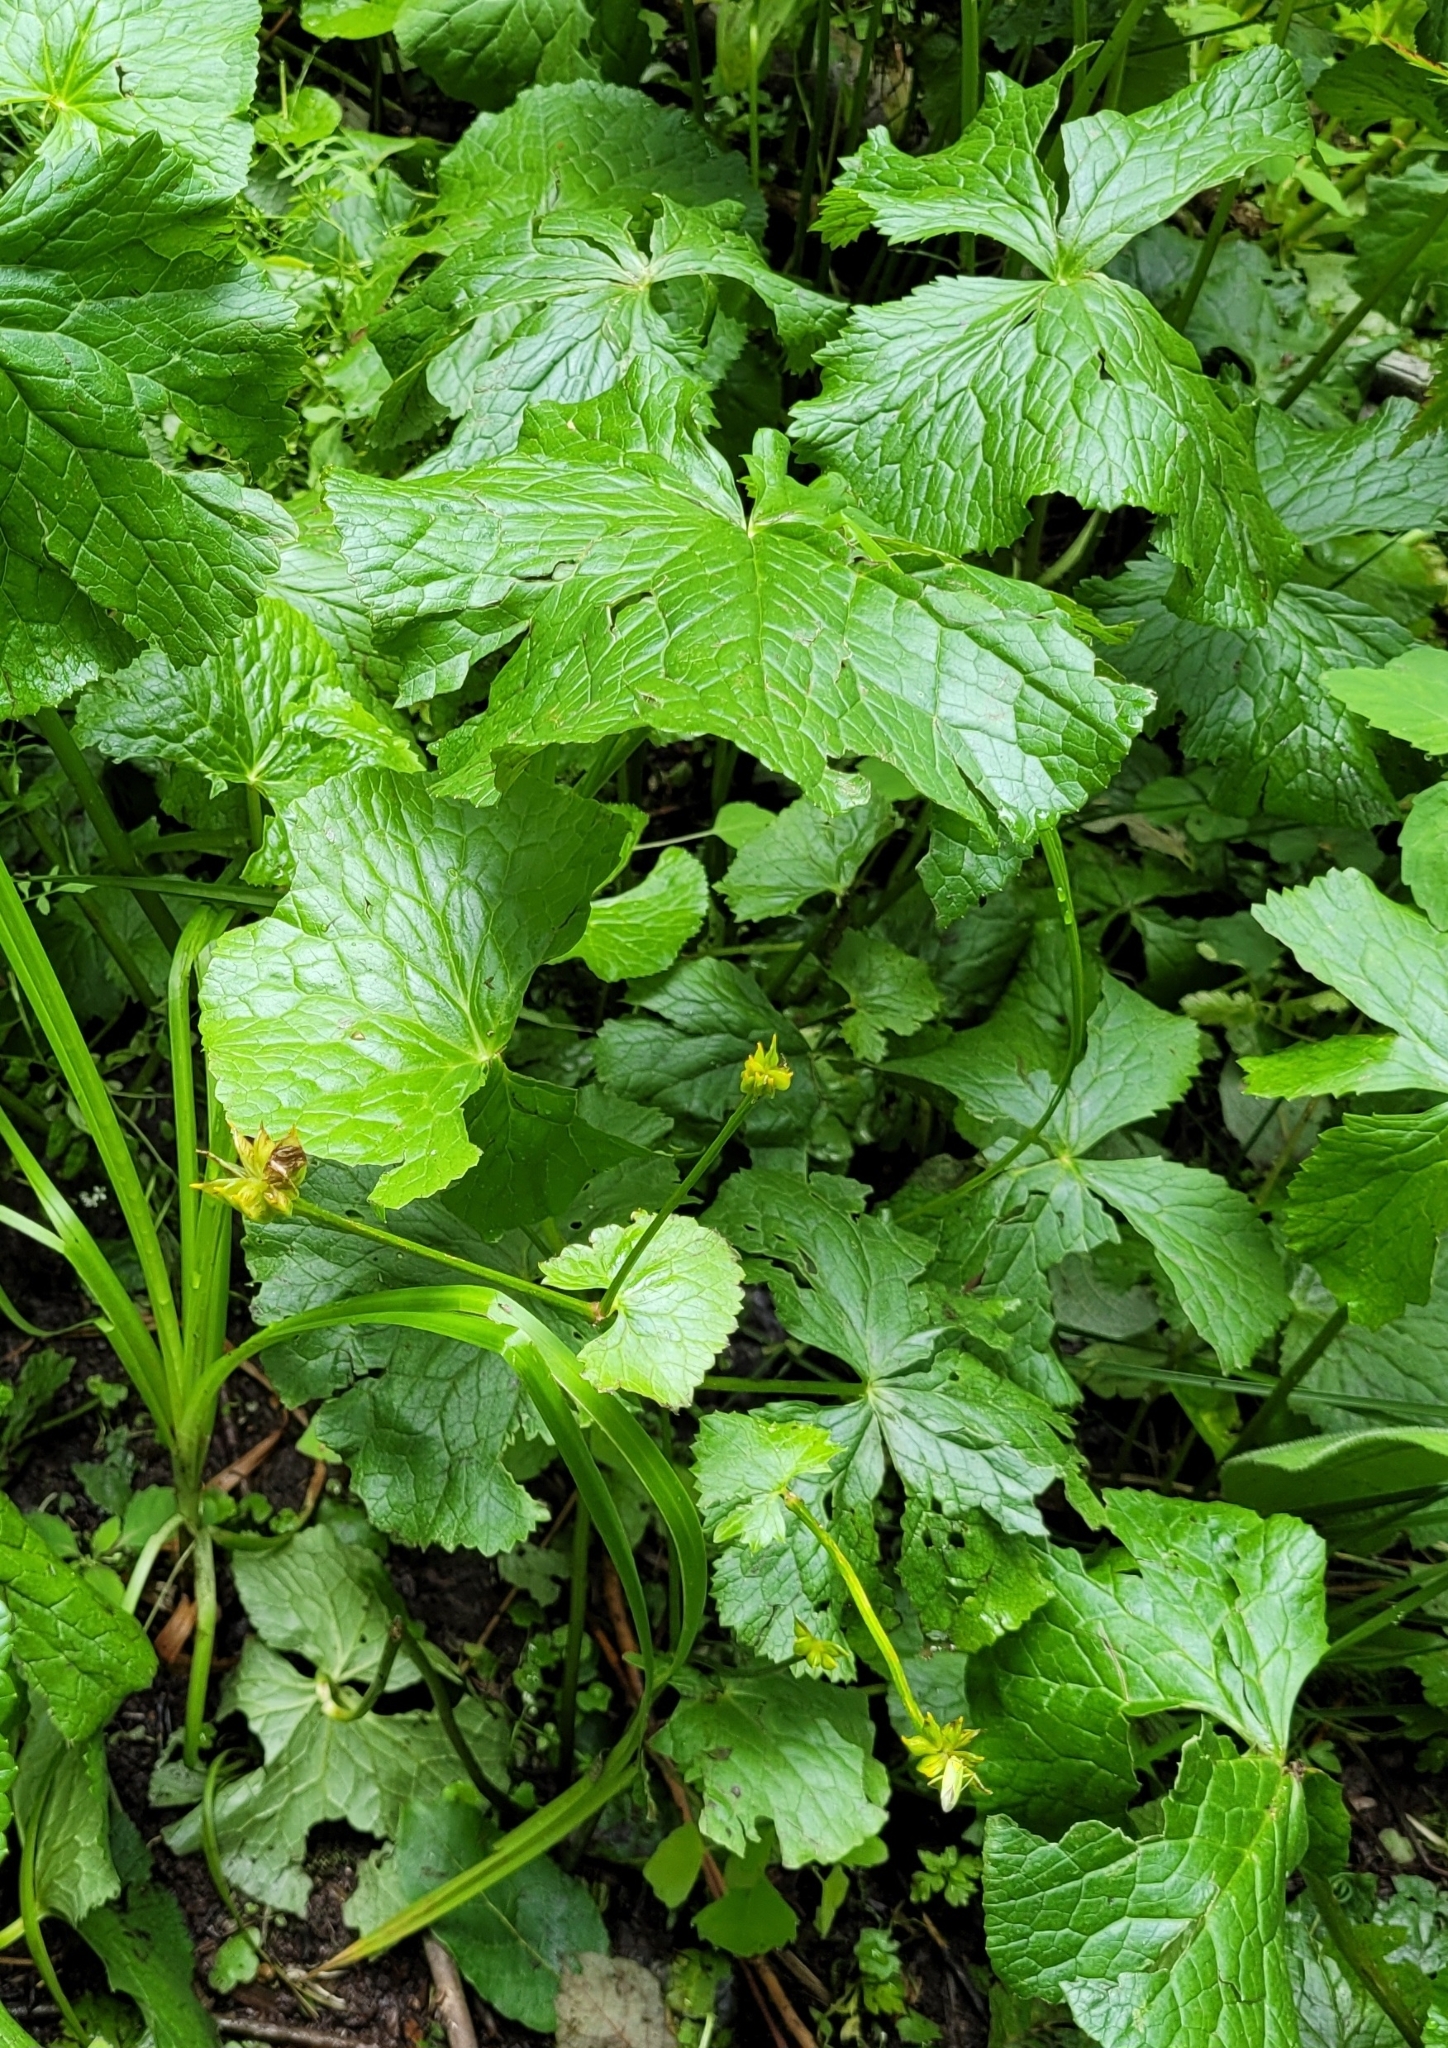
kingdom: Plantae
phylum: Tracheophyta
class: Magnoliopsida
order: Ranunculales
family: Ranunculaceae
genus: Caltha
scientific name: Caltha palustris
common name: Marsh marigold
